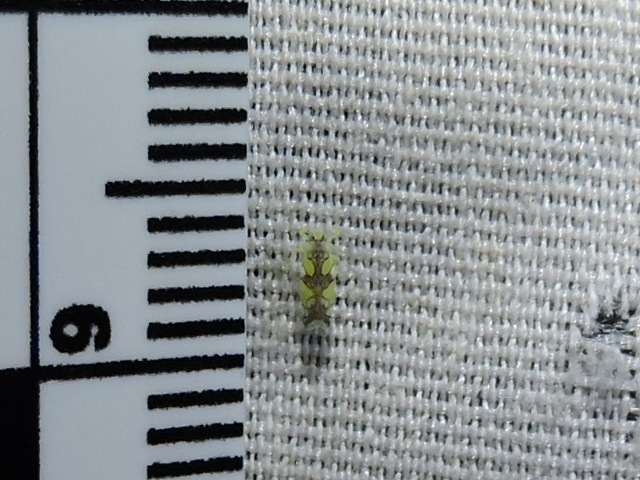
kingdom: Animalia
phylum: Arthropoda
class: Insecta
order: Hemiptera
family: Cicadellidae
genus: Protalebrella
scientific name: Protalebrella conica
